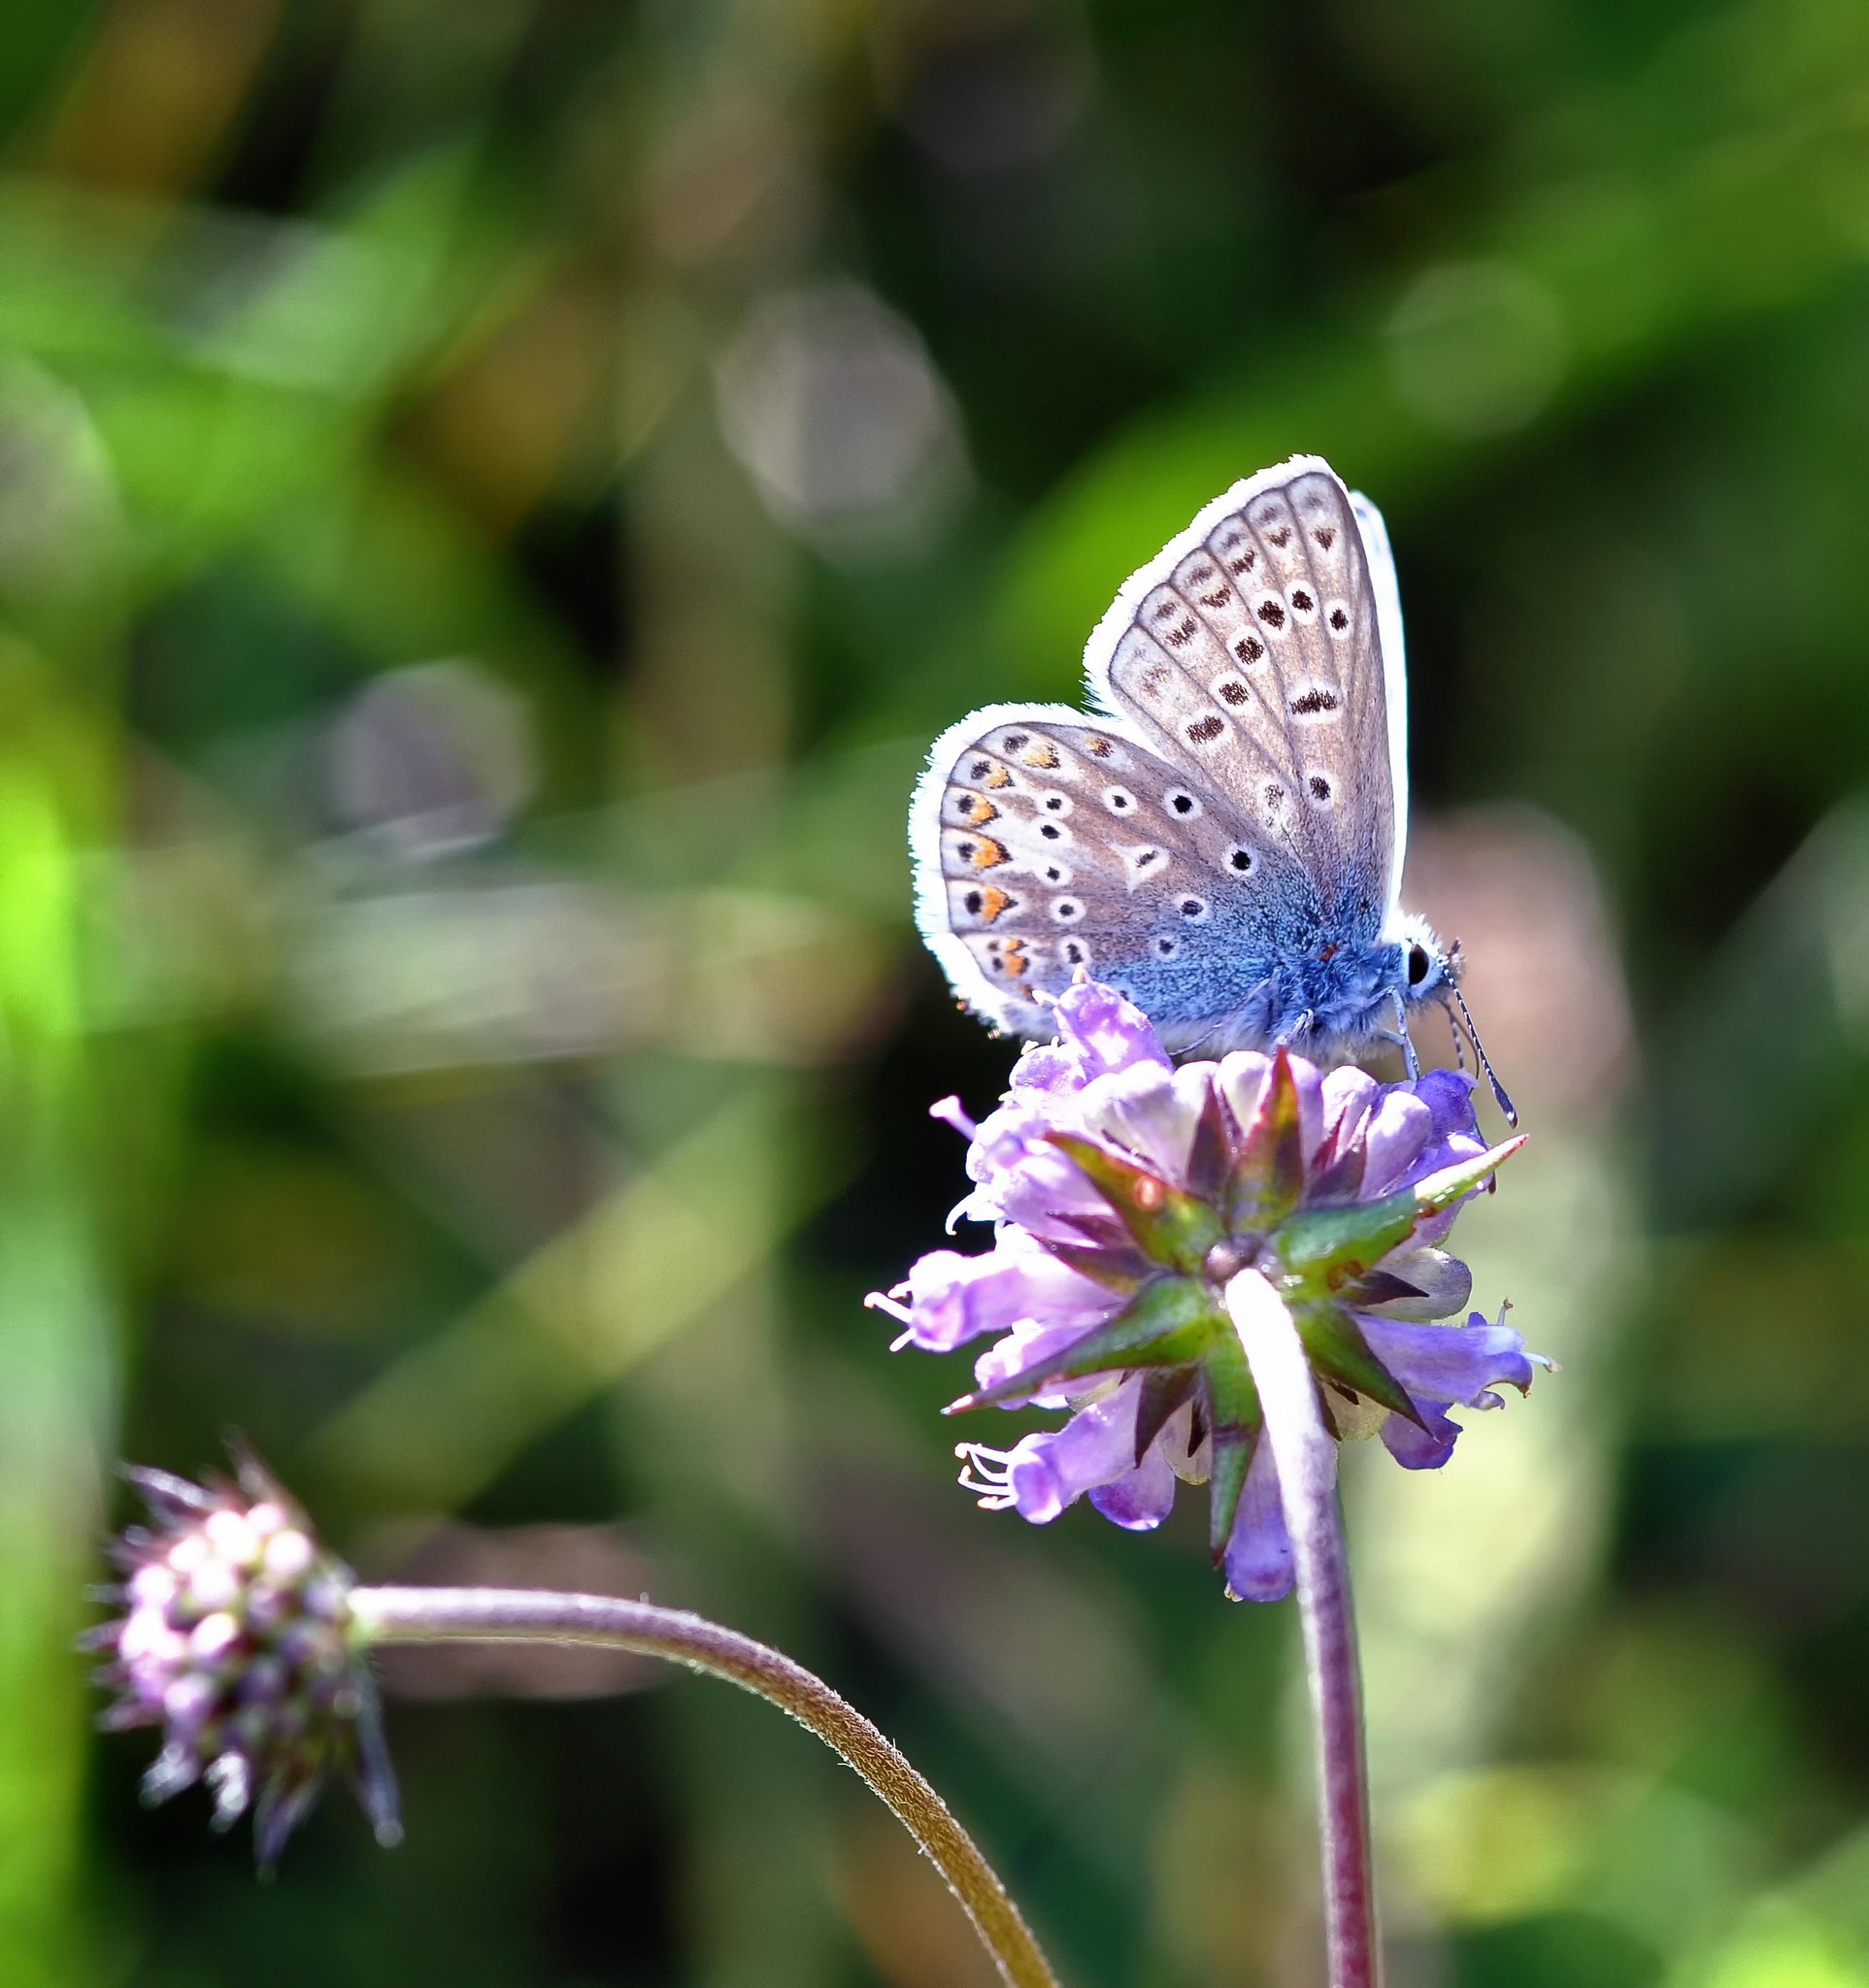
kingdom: Animalia
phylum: Arthropoda
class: Insecta
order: Lepidoptera
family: Lycaenidae
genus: Polyommatus
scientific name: Polyommatus icarus
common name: Common blue
